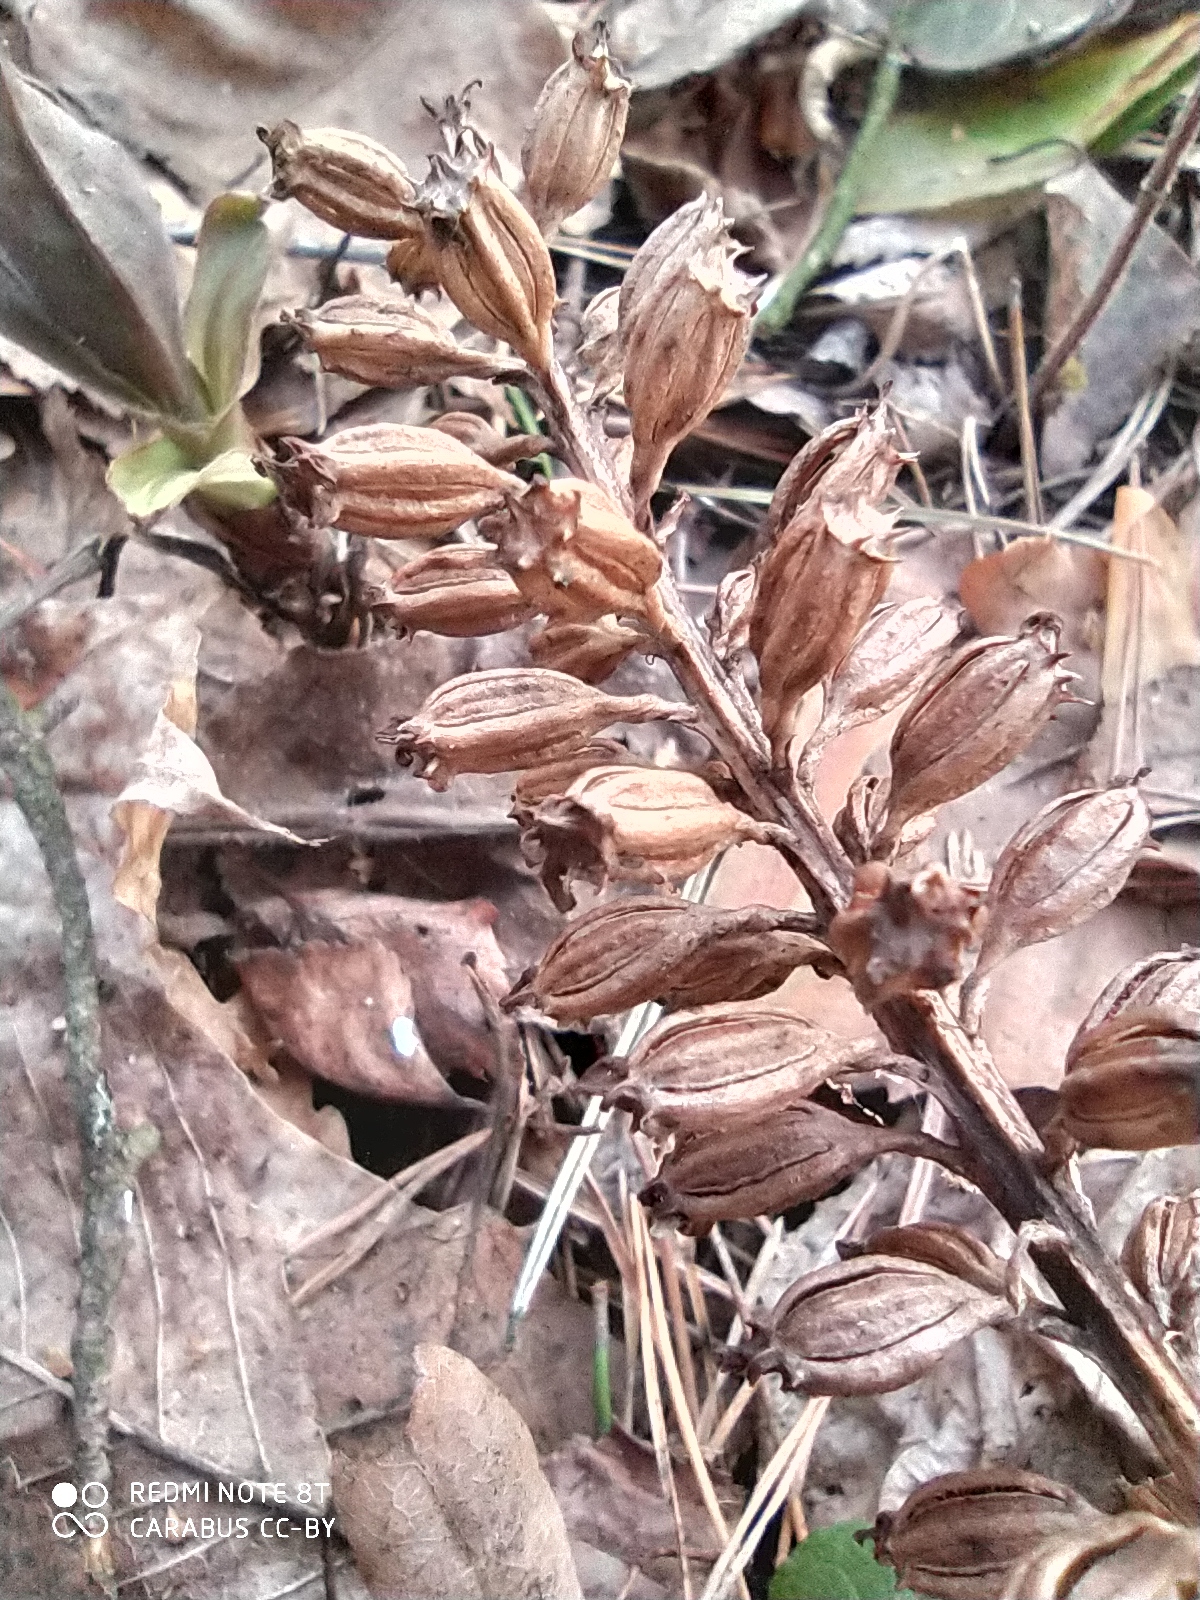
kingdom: Plantae
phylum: Tracheophyta
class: Liliopsida
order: Asparagales
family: Orchidaceae
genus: Neottia
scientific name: Neottia nidus-avis
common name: Bird's-nest orchid
